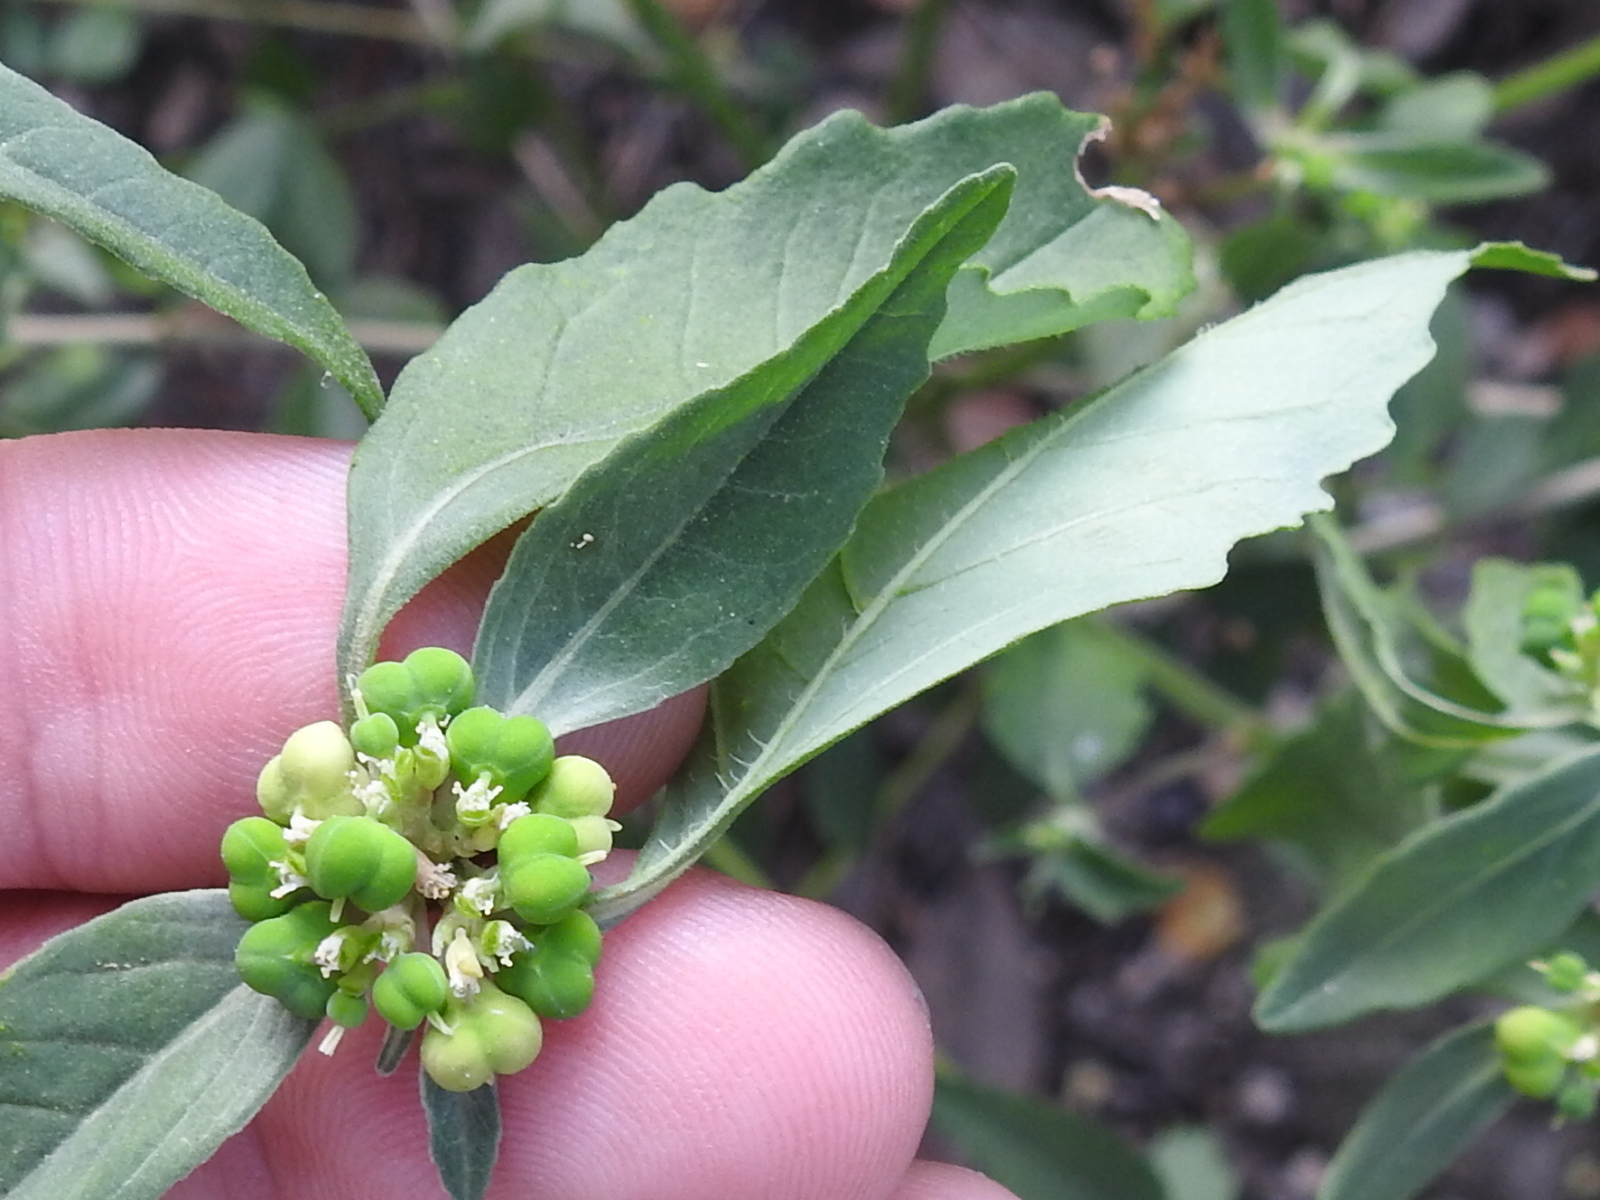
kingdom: Plantae
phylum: Tracheophyta
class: Magnoliopsida
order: Malpighiales
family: Euphorbiaceae
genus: Euphorbia
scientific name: Euphorbia dentata
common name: Dentate spurge
